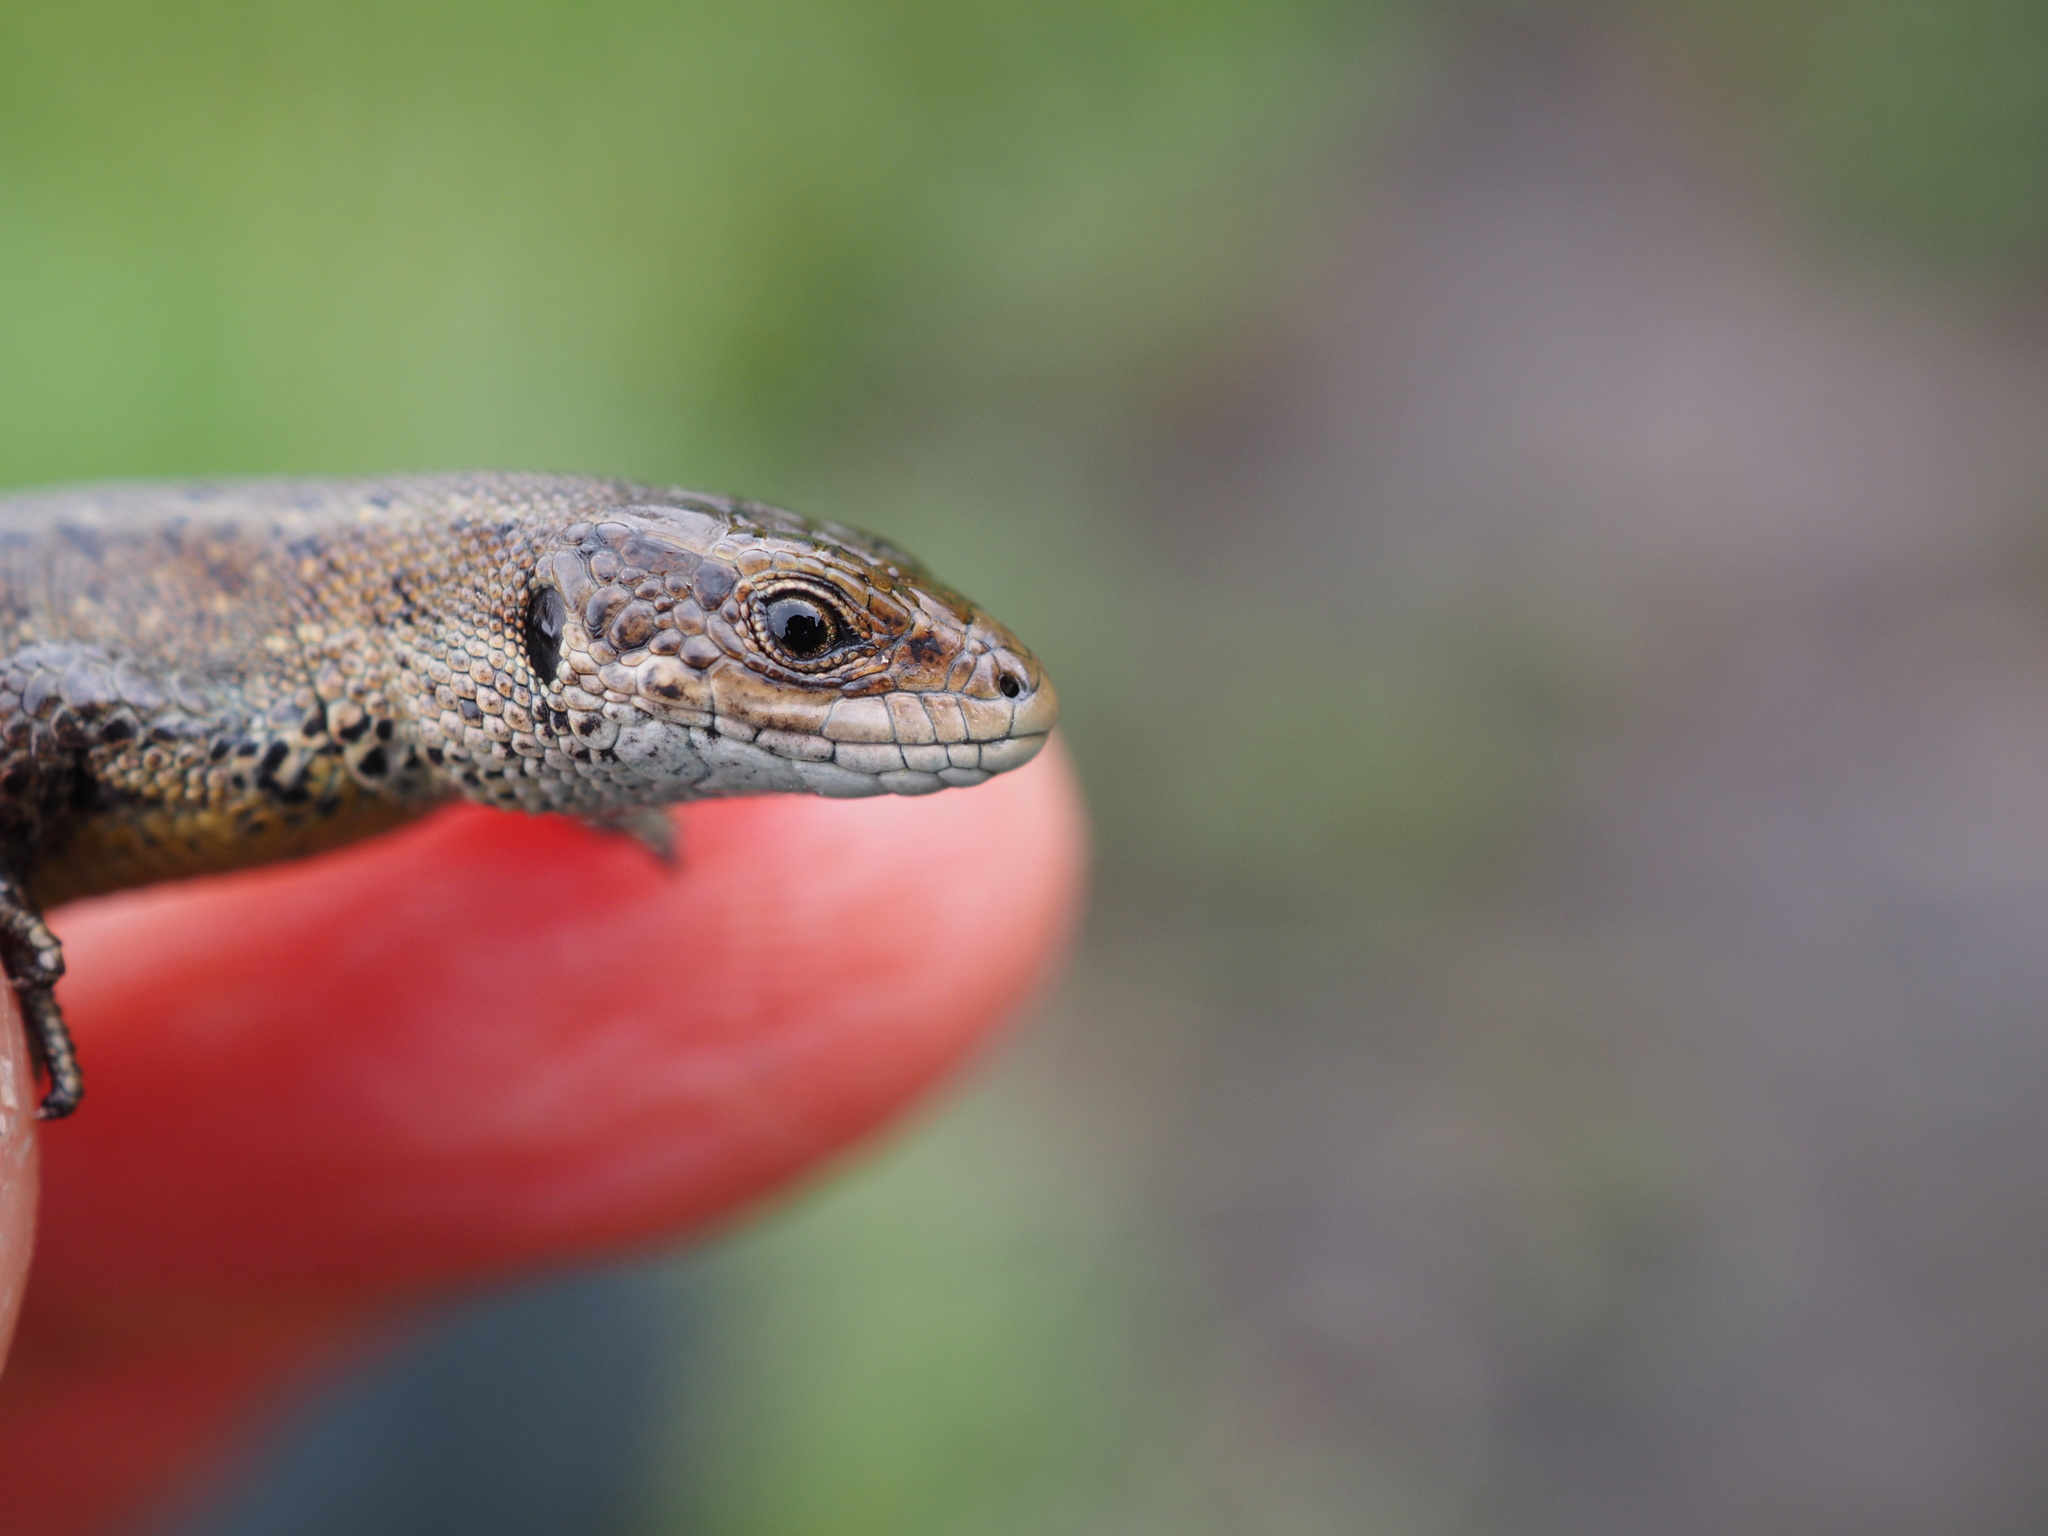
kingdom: Animalia
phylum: Chordata
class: Squamata
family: Lacertidae
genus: Zootoca
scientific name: Zootoca vivipara
